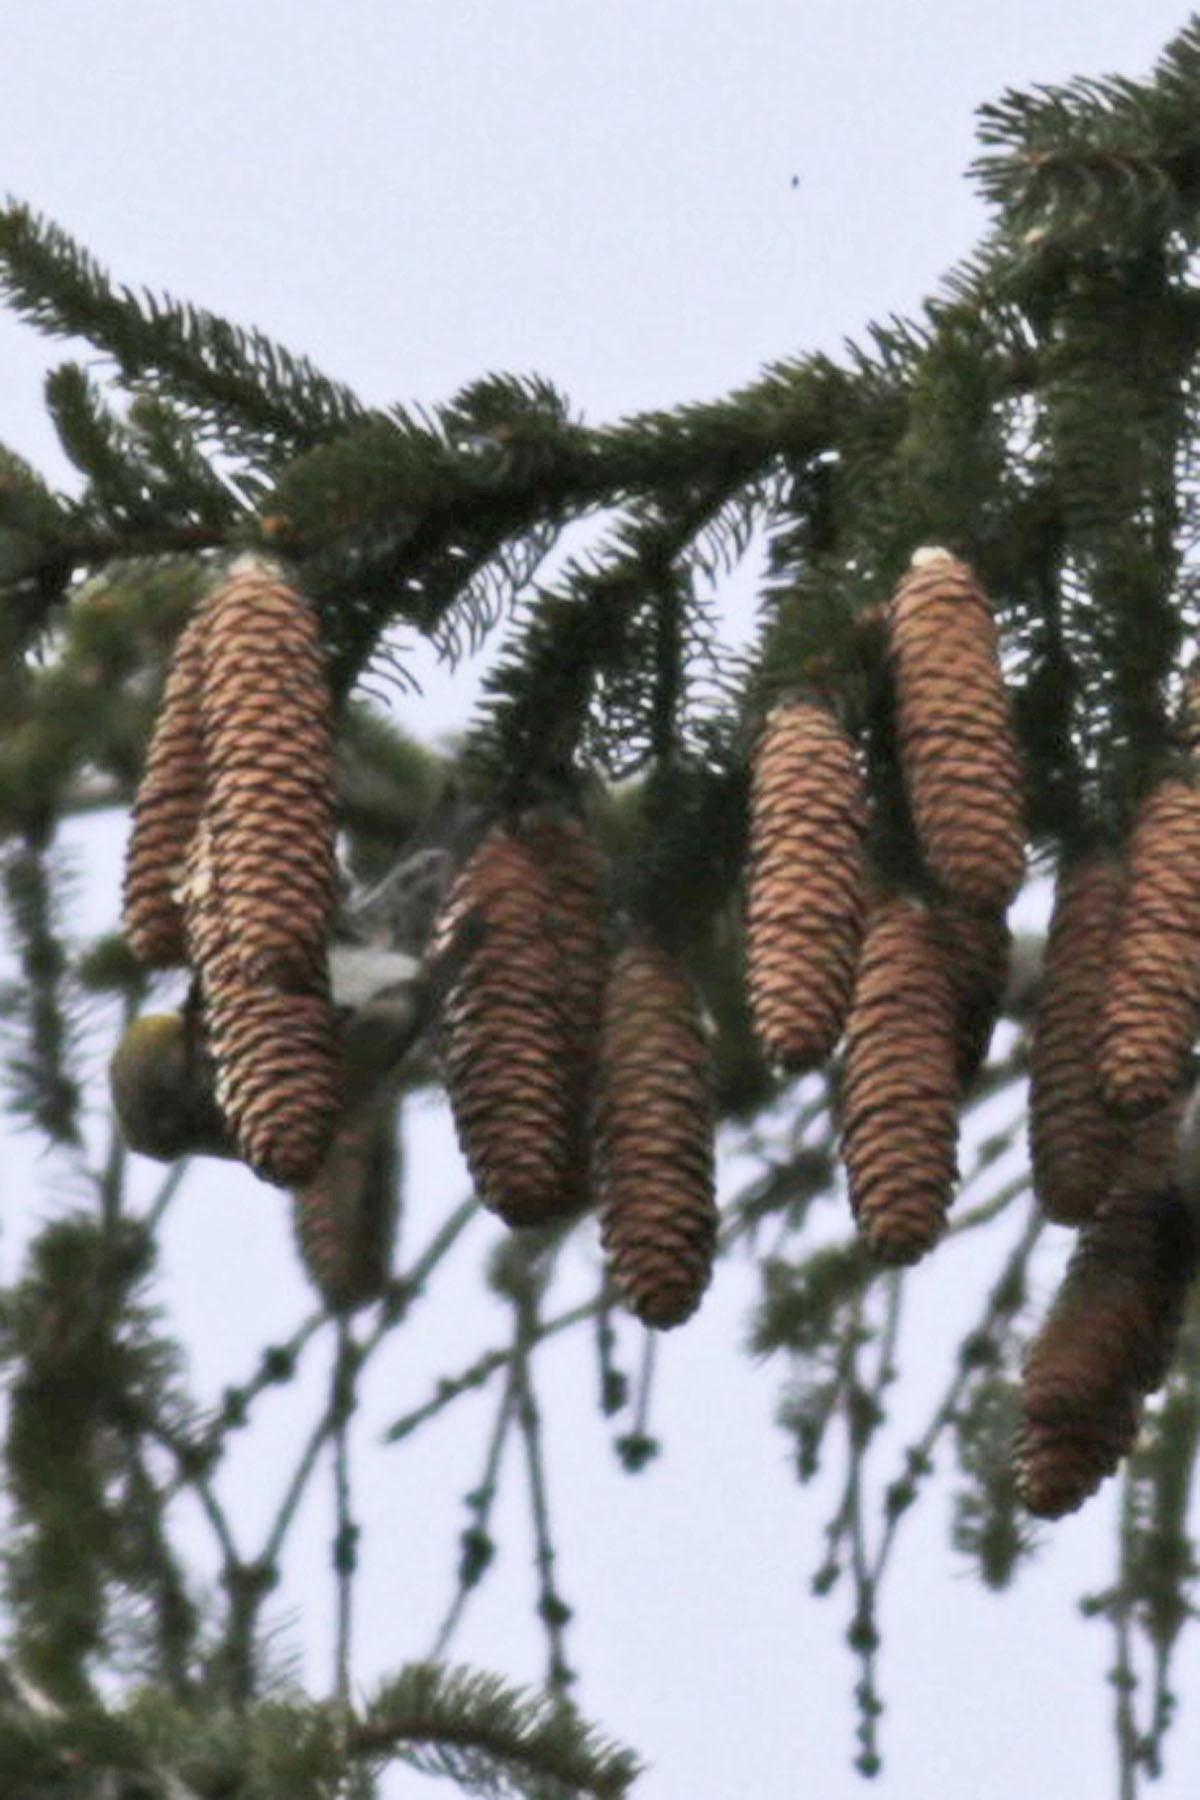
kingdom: Plantae
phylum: Tracheophyta
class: Pinopsida
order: Pinales
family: Pinaceae
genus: Picea
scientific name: Picea abies
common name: Norway spruce
